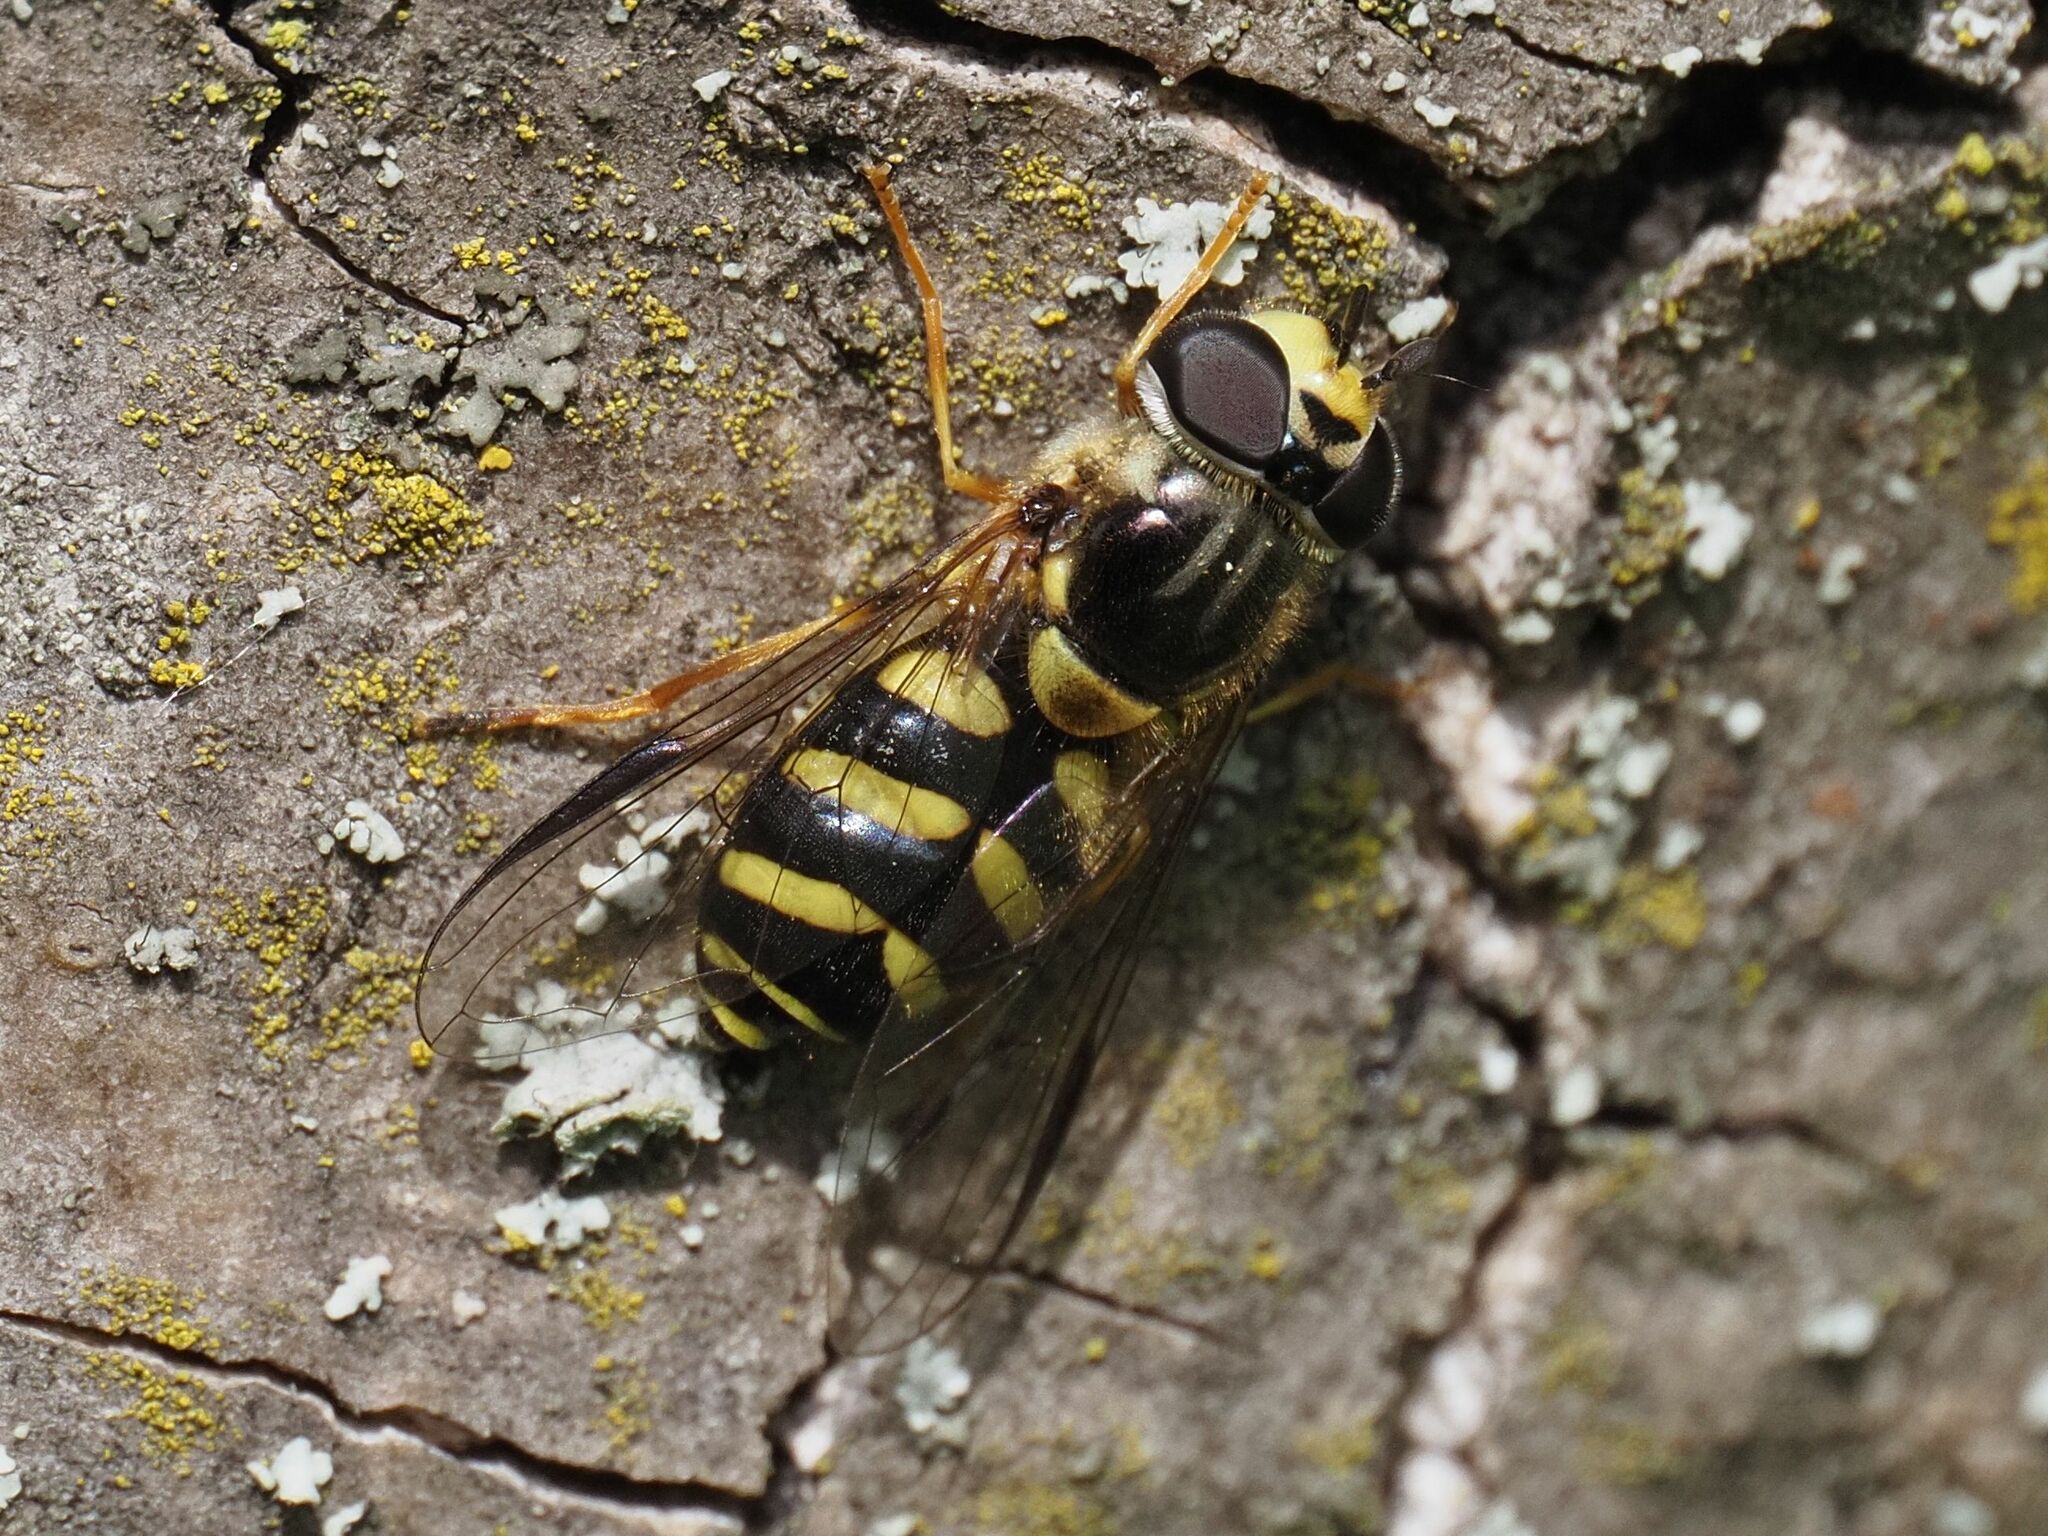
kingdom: Animalia
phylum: Arthropoda
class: Insecta
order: Diptera
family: Syrphidae
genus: Dasysyrphus
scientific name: Dasysyrphus albostriatus
